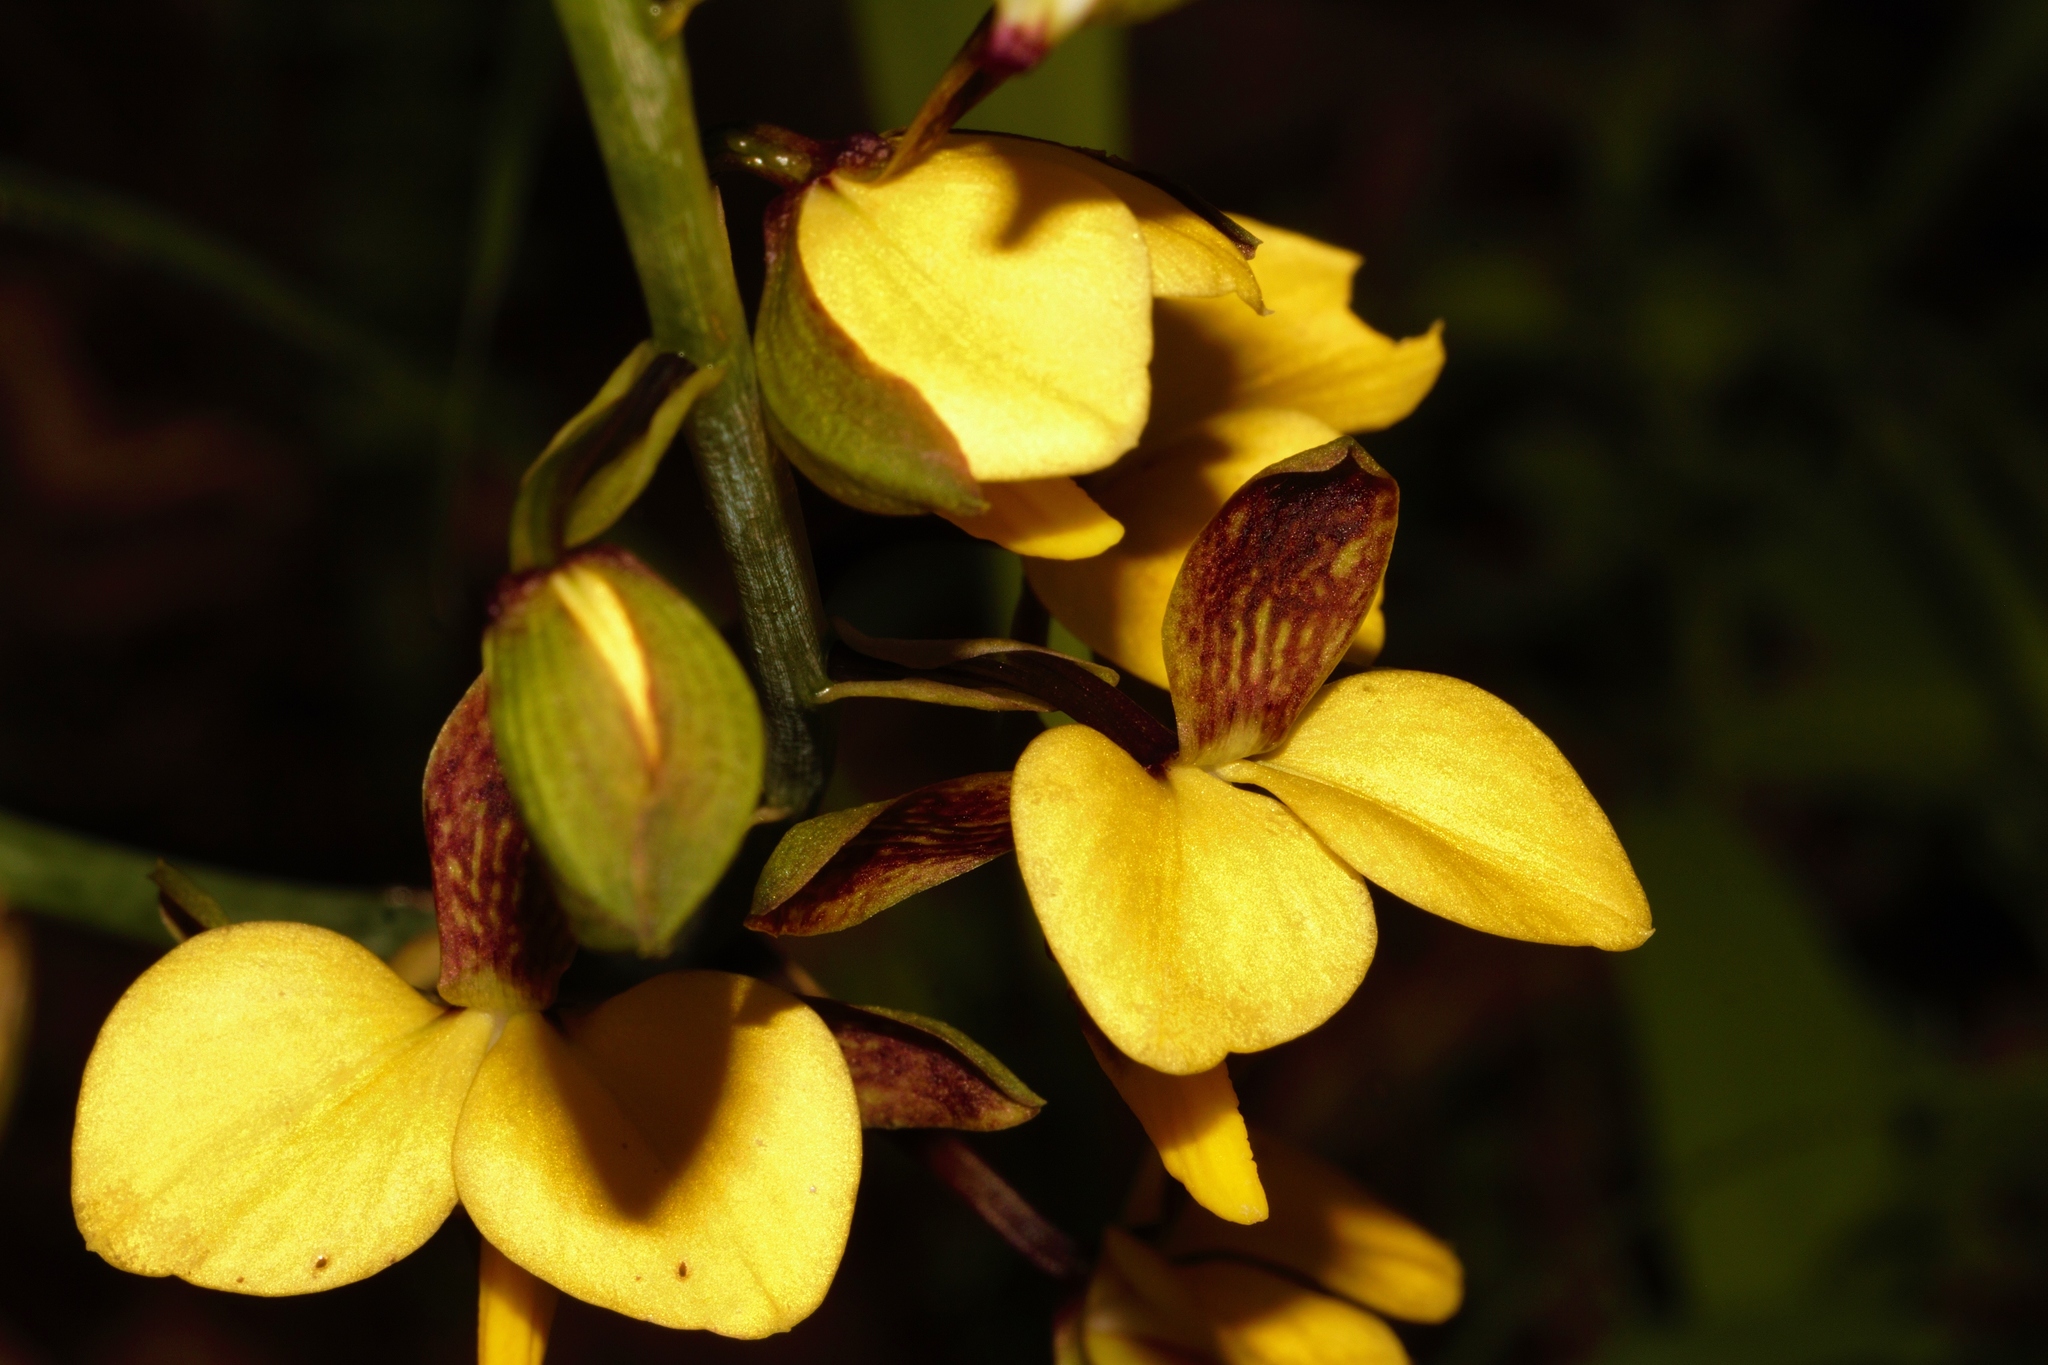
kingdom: Plantae
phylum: Tracheophyta
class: Liliopsida
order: Asparagales
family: Orchidaceae
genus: Eulophia
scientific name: Eulophia streptopetala
